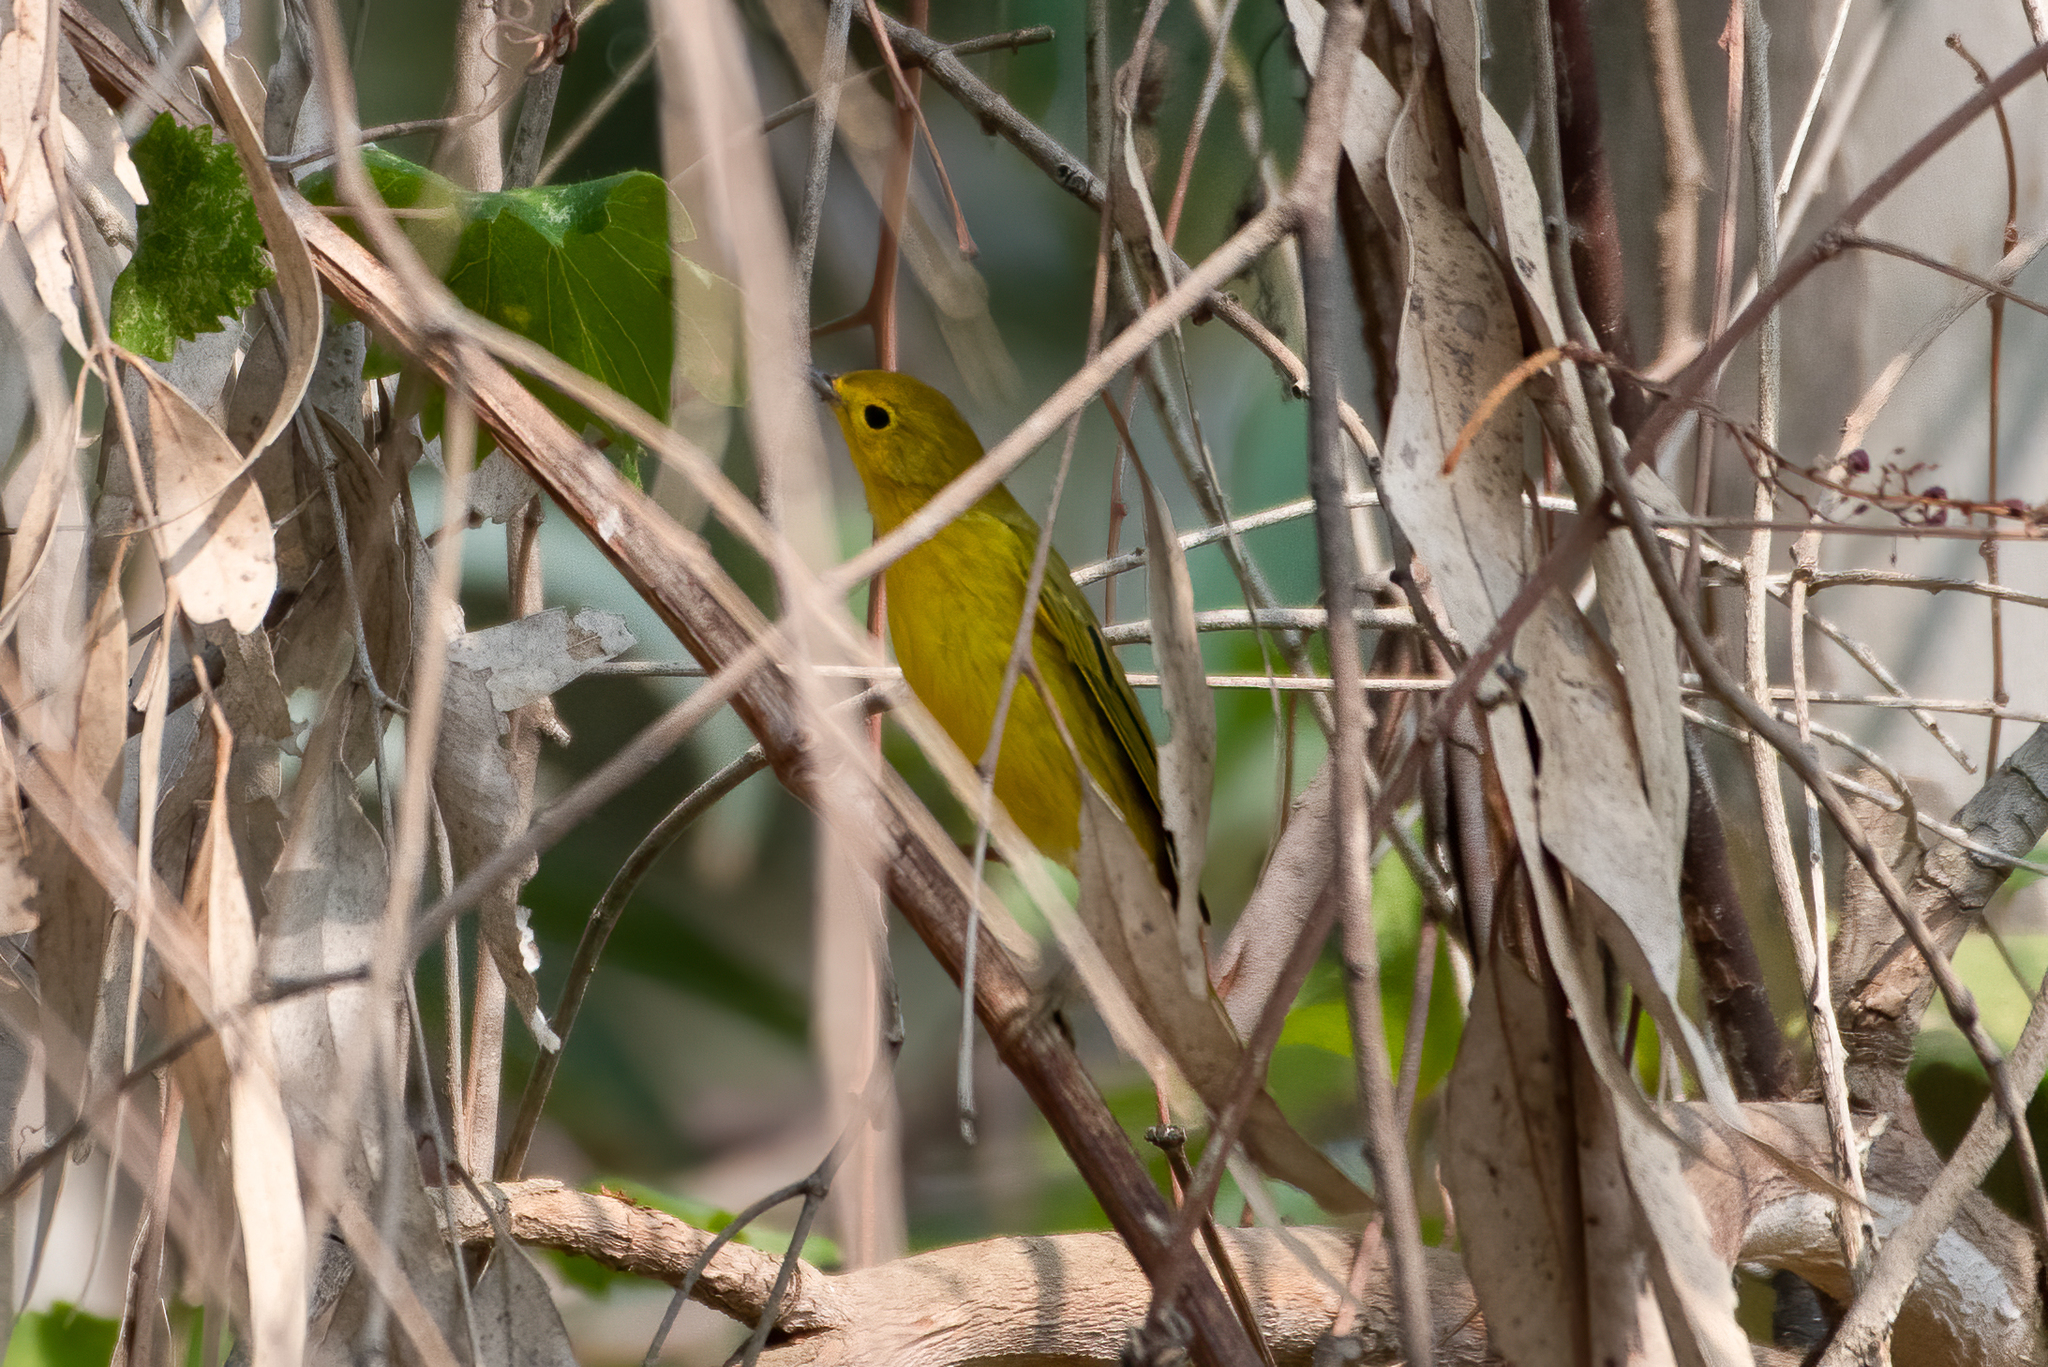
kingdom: Animalia
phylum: Chordata
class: Aves
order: Passeriformes
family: Parulidae
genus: Setophaga
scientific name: Setophaga petechia
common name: Yellow warbler
